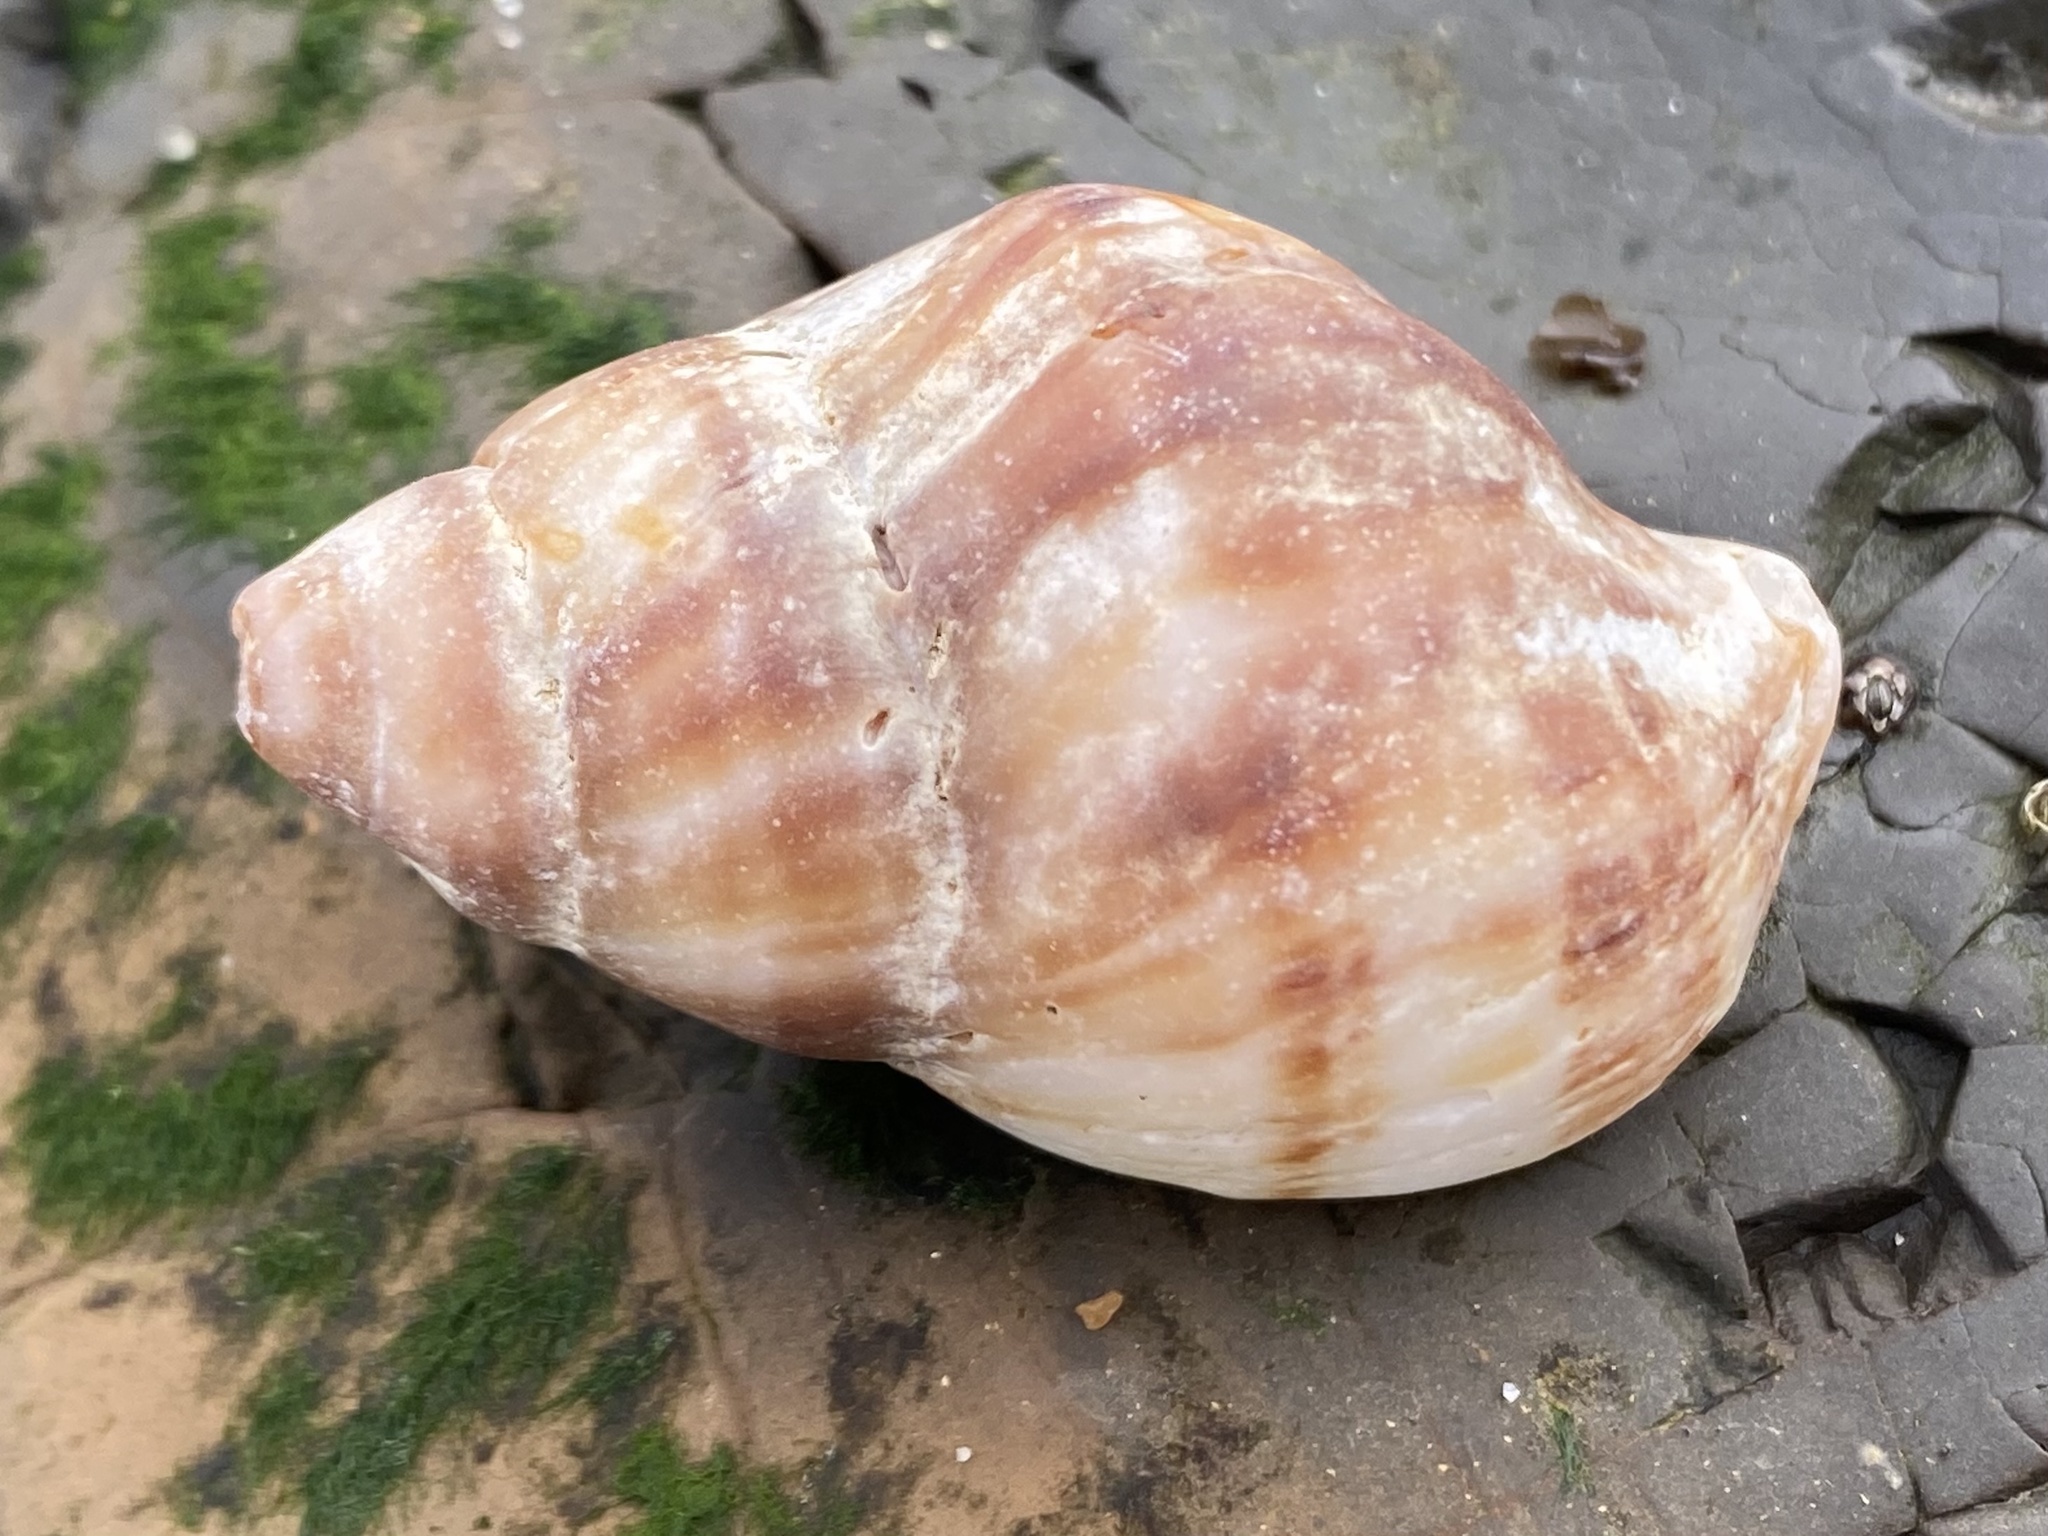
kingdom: Animalia
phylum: Mollusca
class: Gastropoda
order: Neogastropoda
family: Muricidae
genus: Nucella
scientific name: Nucella lamellosa
